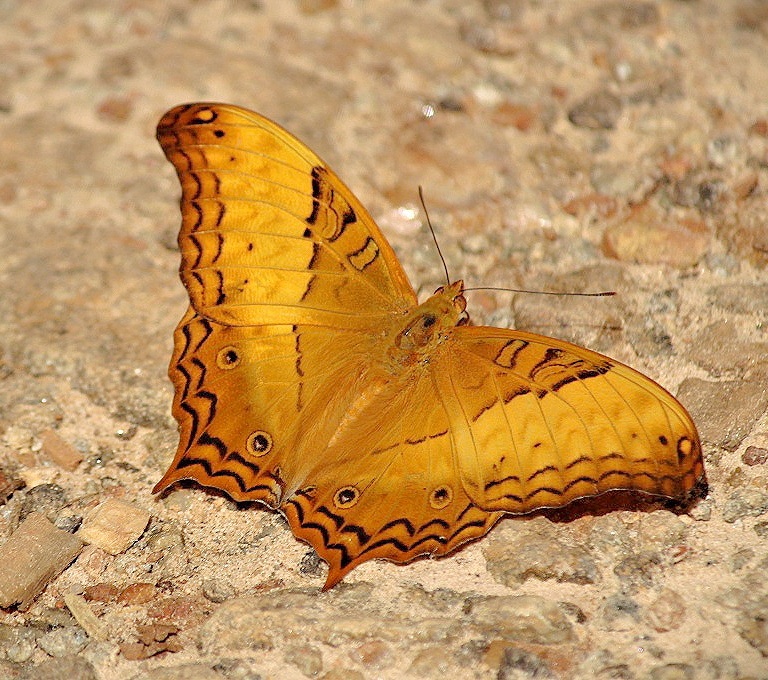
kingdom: Animalia
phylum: Arthropoda
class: Insecta
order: Lepidoptera
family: Nymphalidae
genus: Vindula
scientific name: Vindula erota
